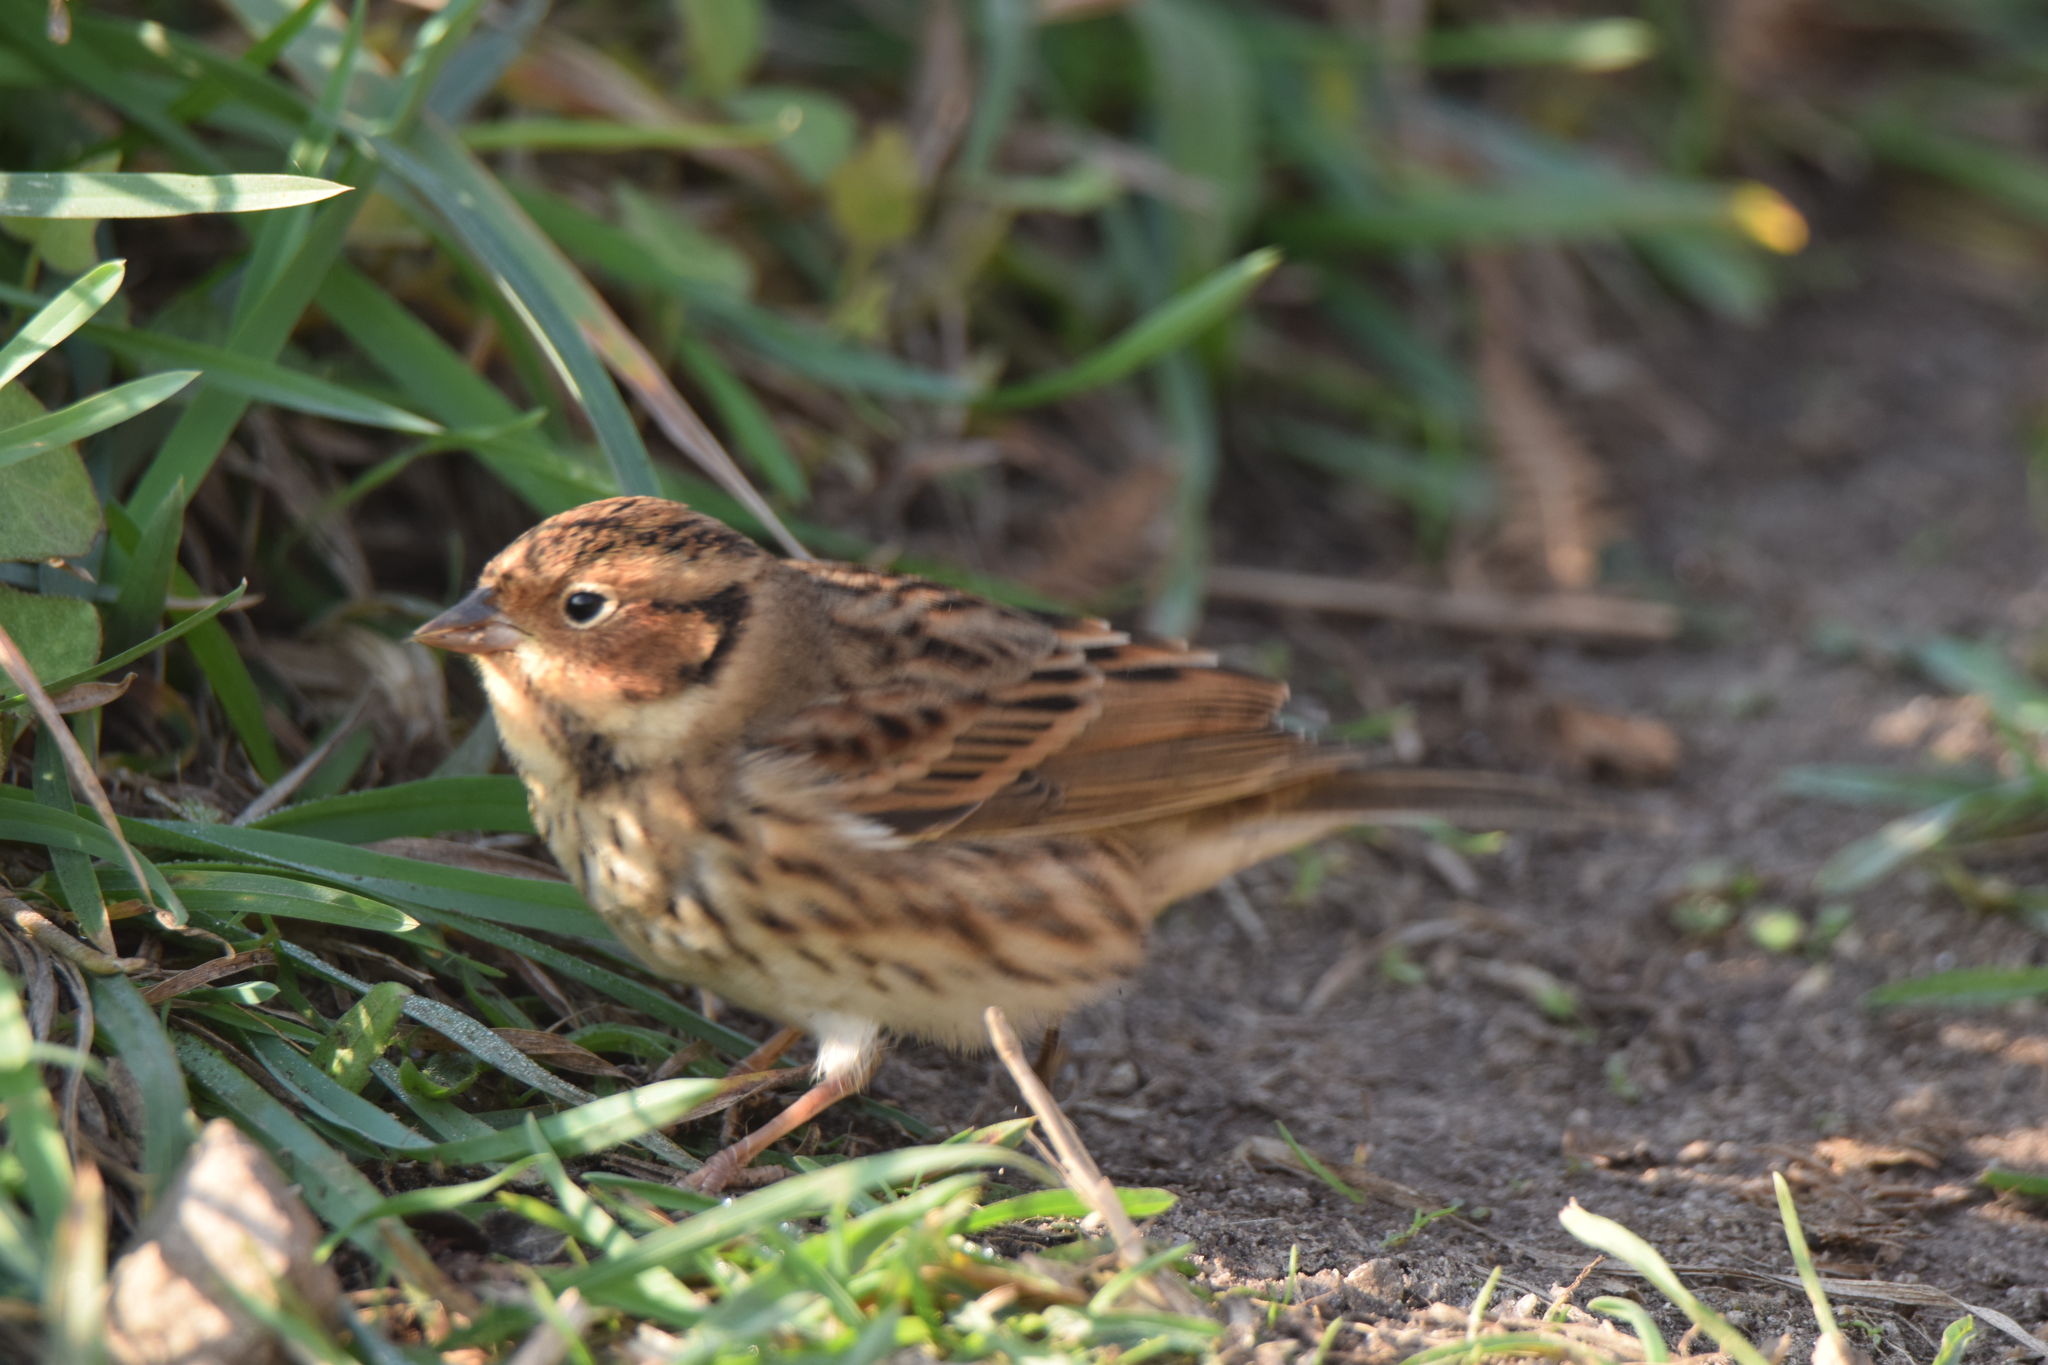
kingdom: Animalia
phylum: Chordata
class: Aves
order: Passeriformes
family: Emberizidae
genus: Emberiza
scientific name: Emberiza pusilla
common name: Little bunting
